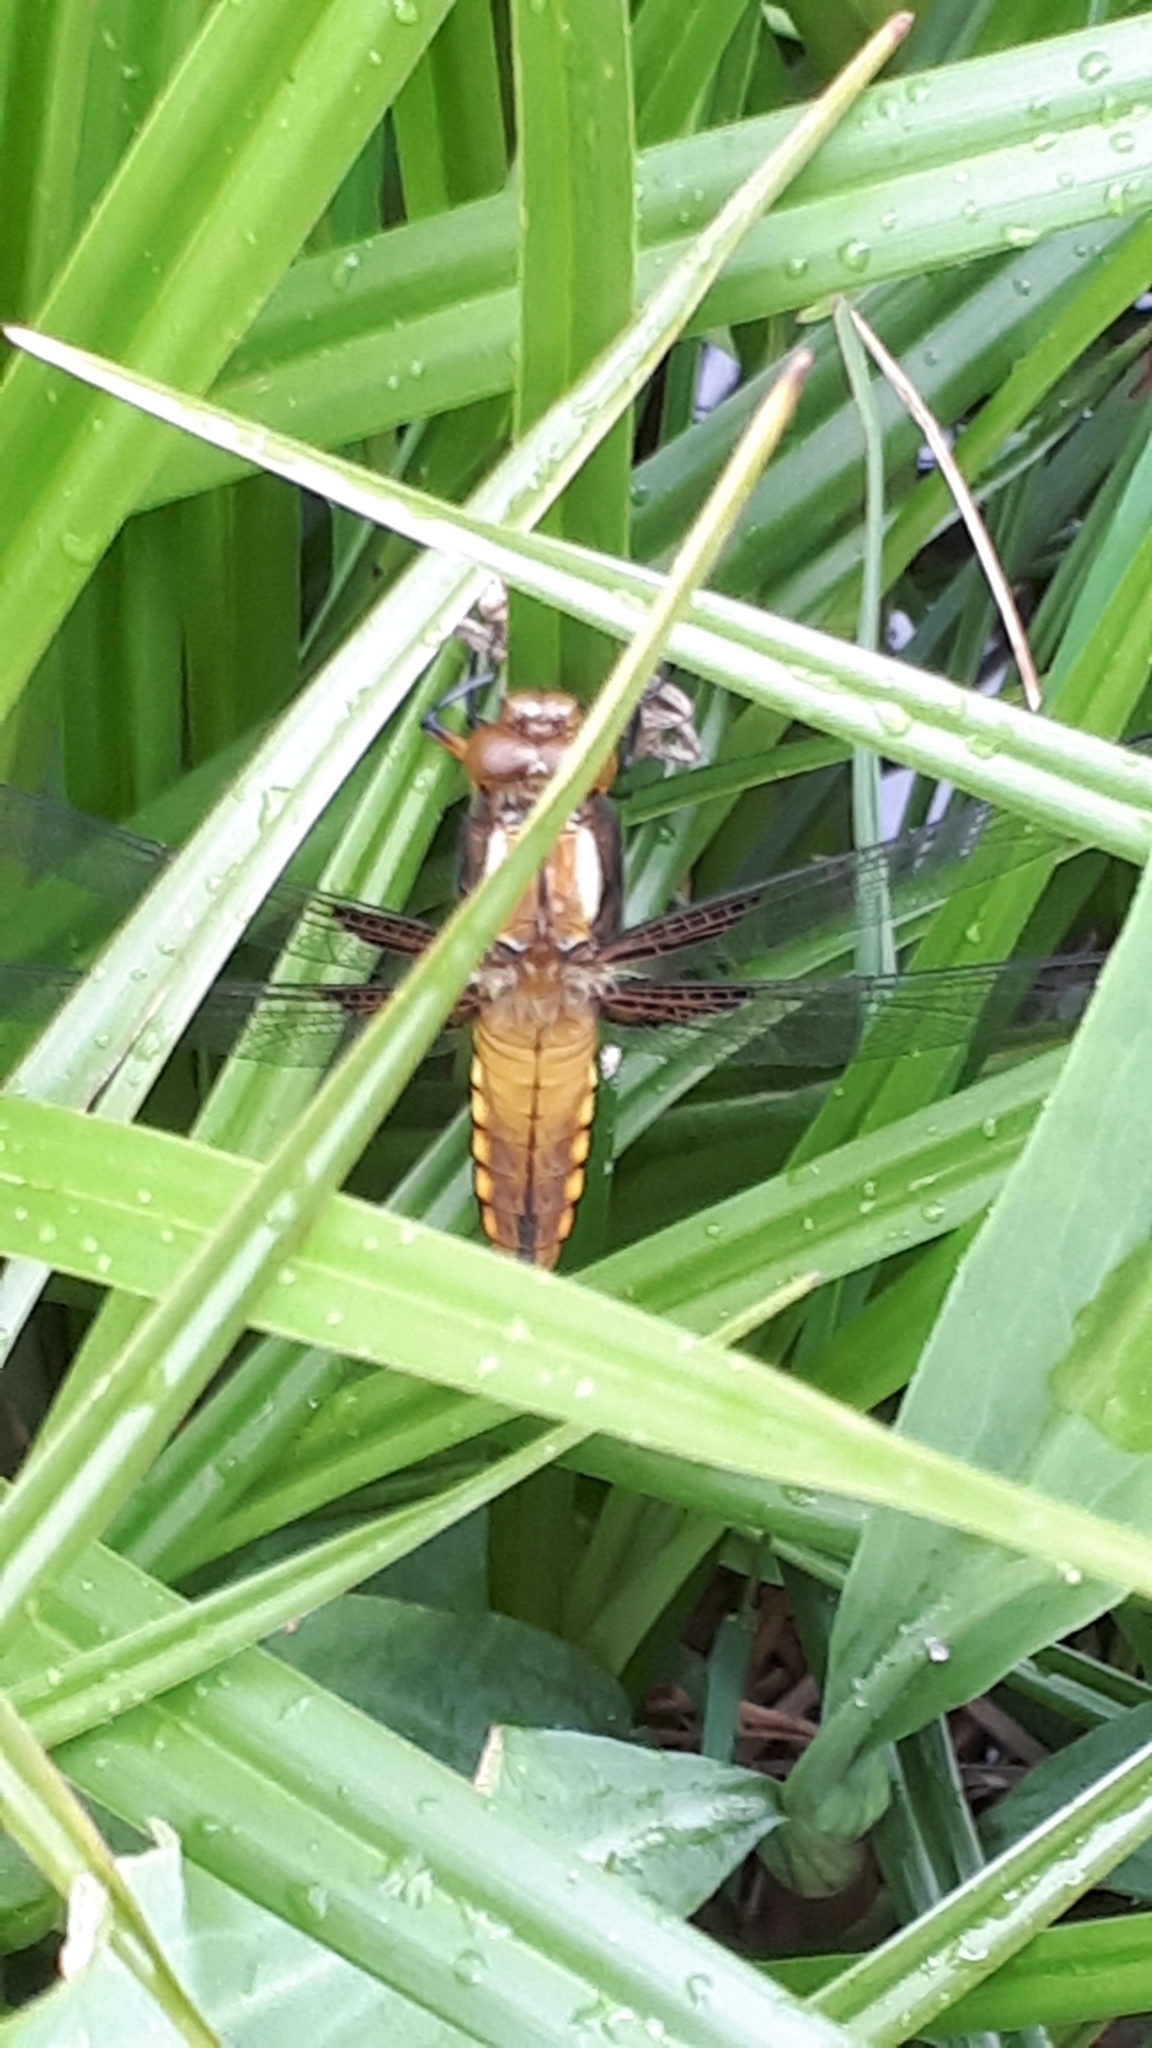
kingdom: Animalia
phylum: Arthropoda
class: Insecta
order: Odonata
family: Libellulidae
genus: Libellula
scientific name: Libellula depressa
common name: Broad-bodied chaser
